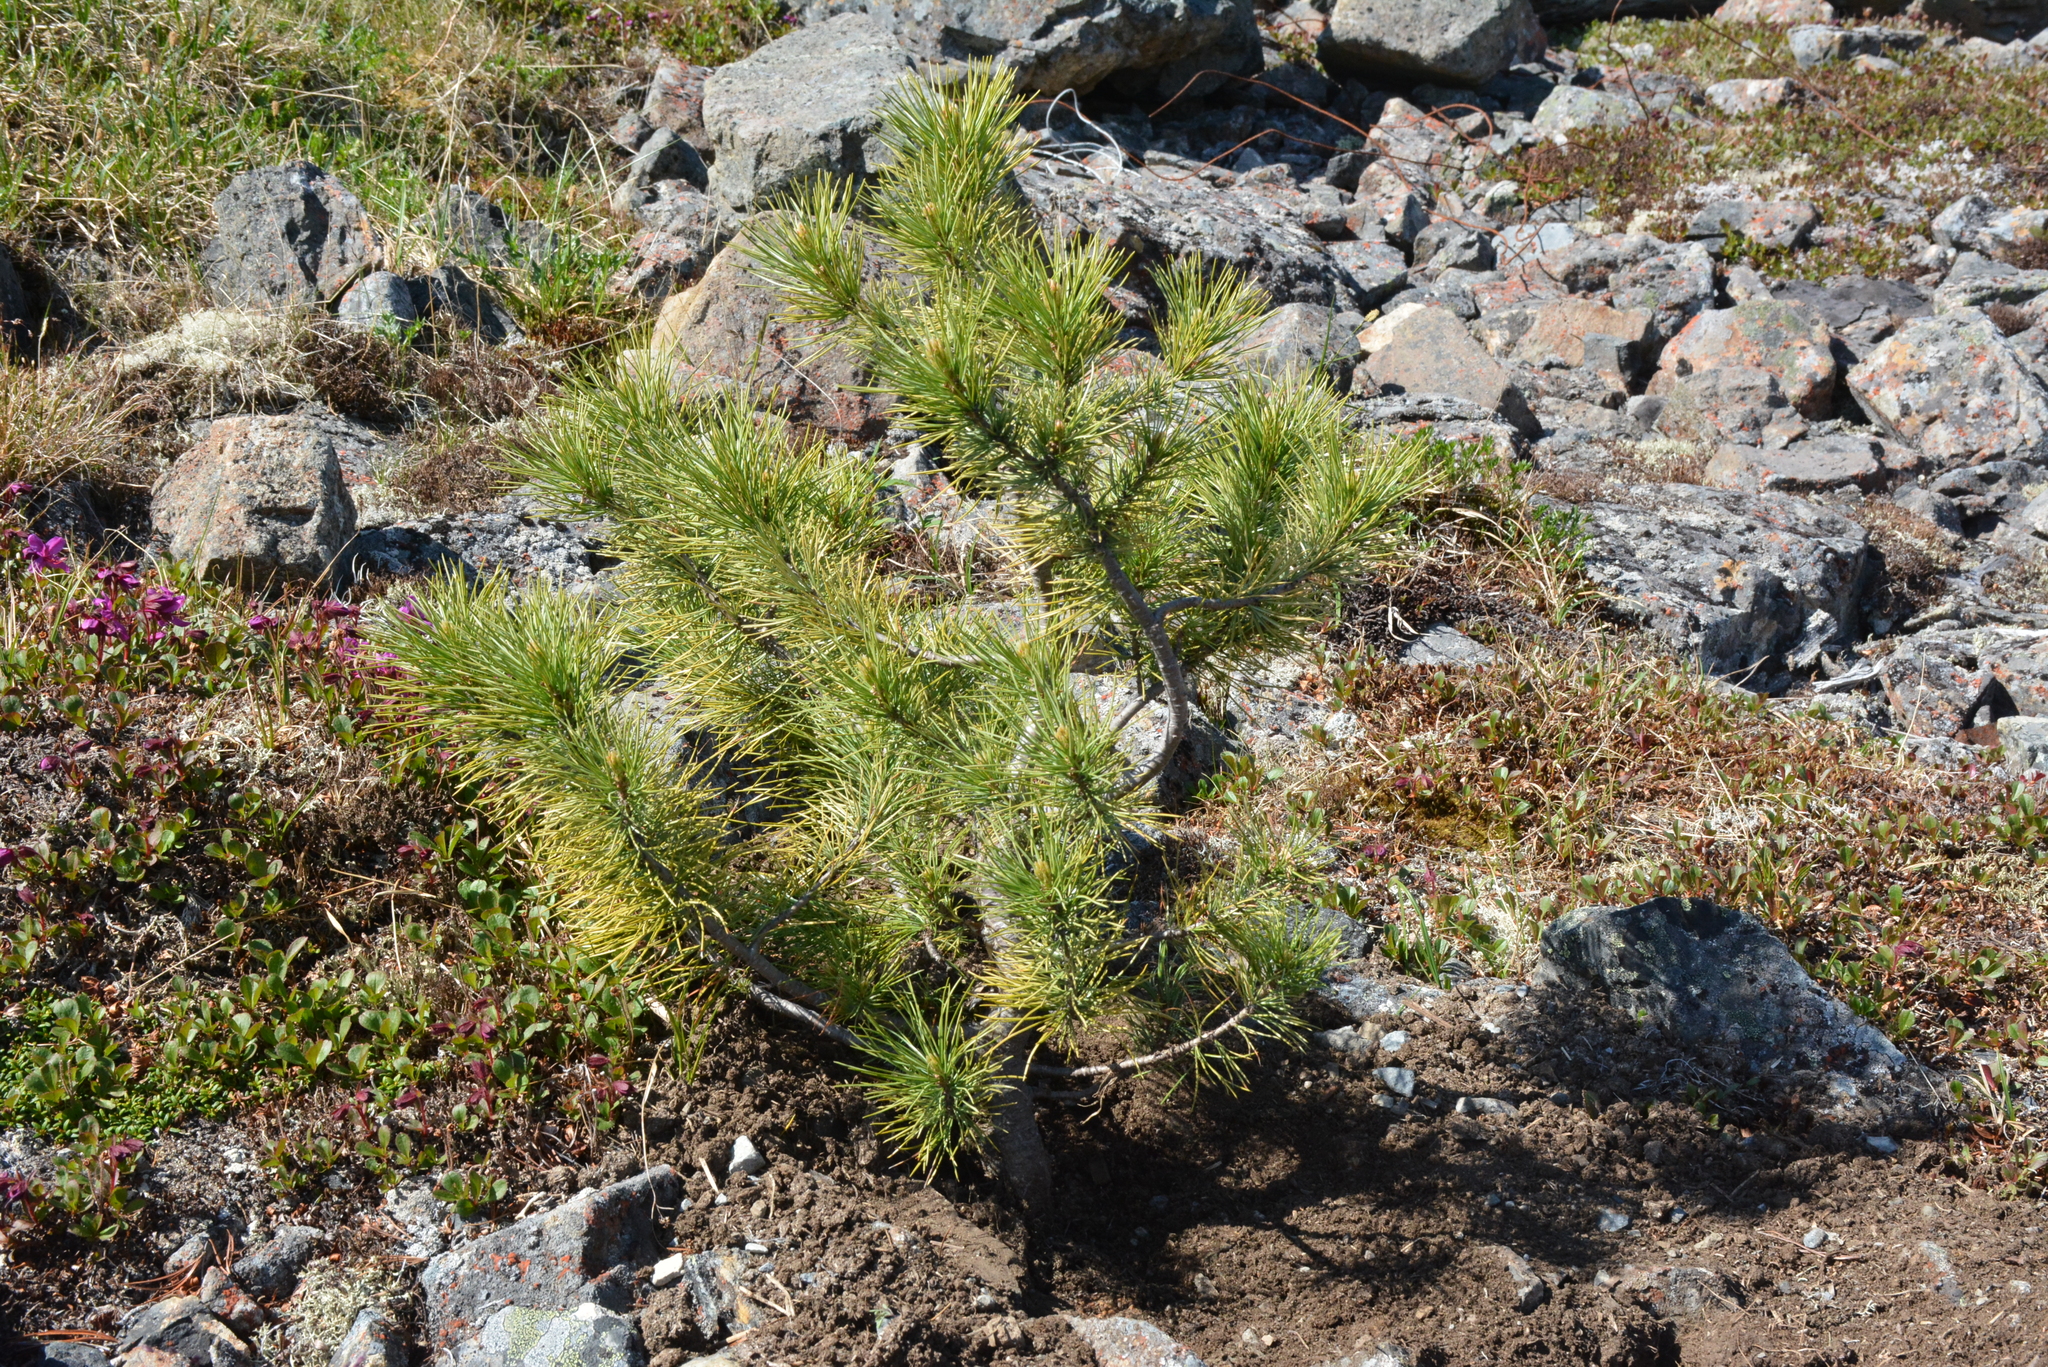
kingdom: Plantae
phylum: Tracheophyta
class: Pinopsida
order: Pinales
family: Pinaceae
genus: Pinus
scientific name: Pinus pumila
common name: Dwarf siberian pine
